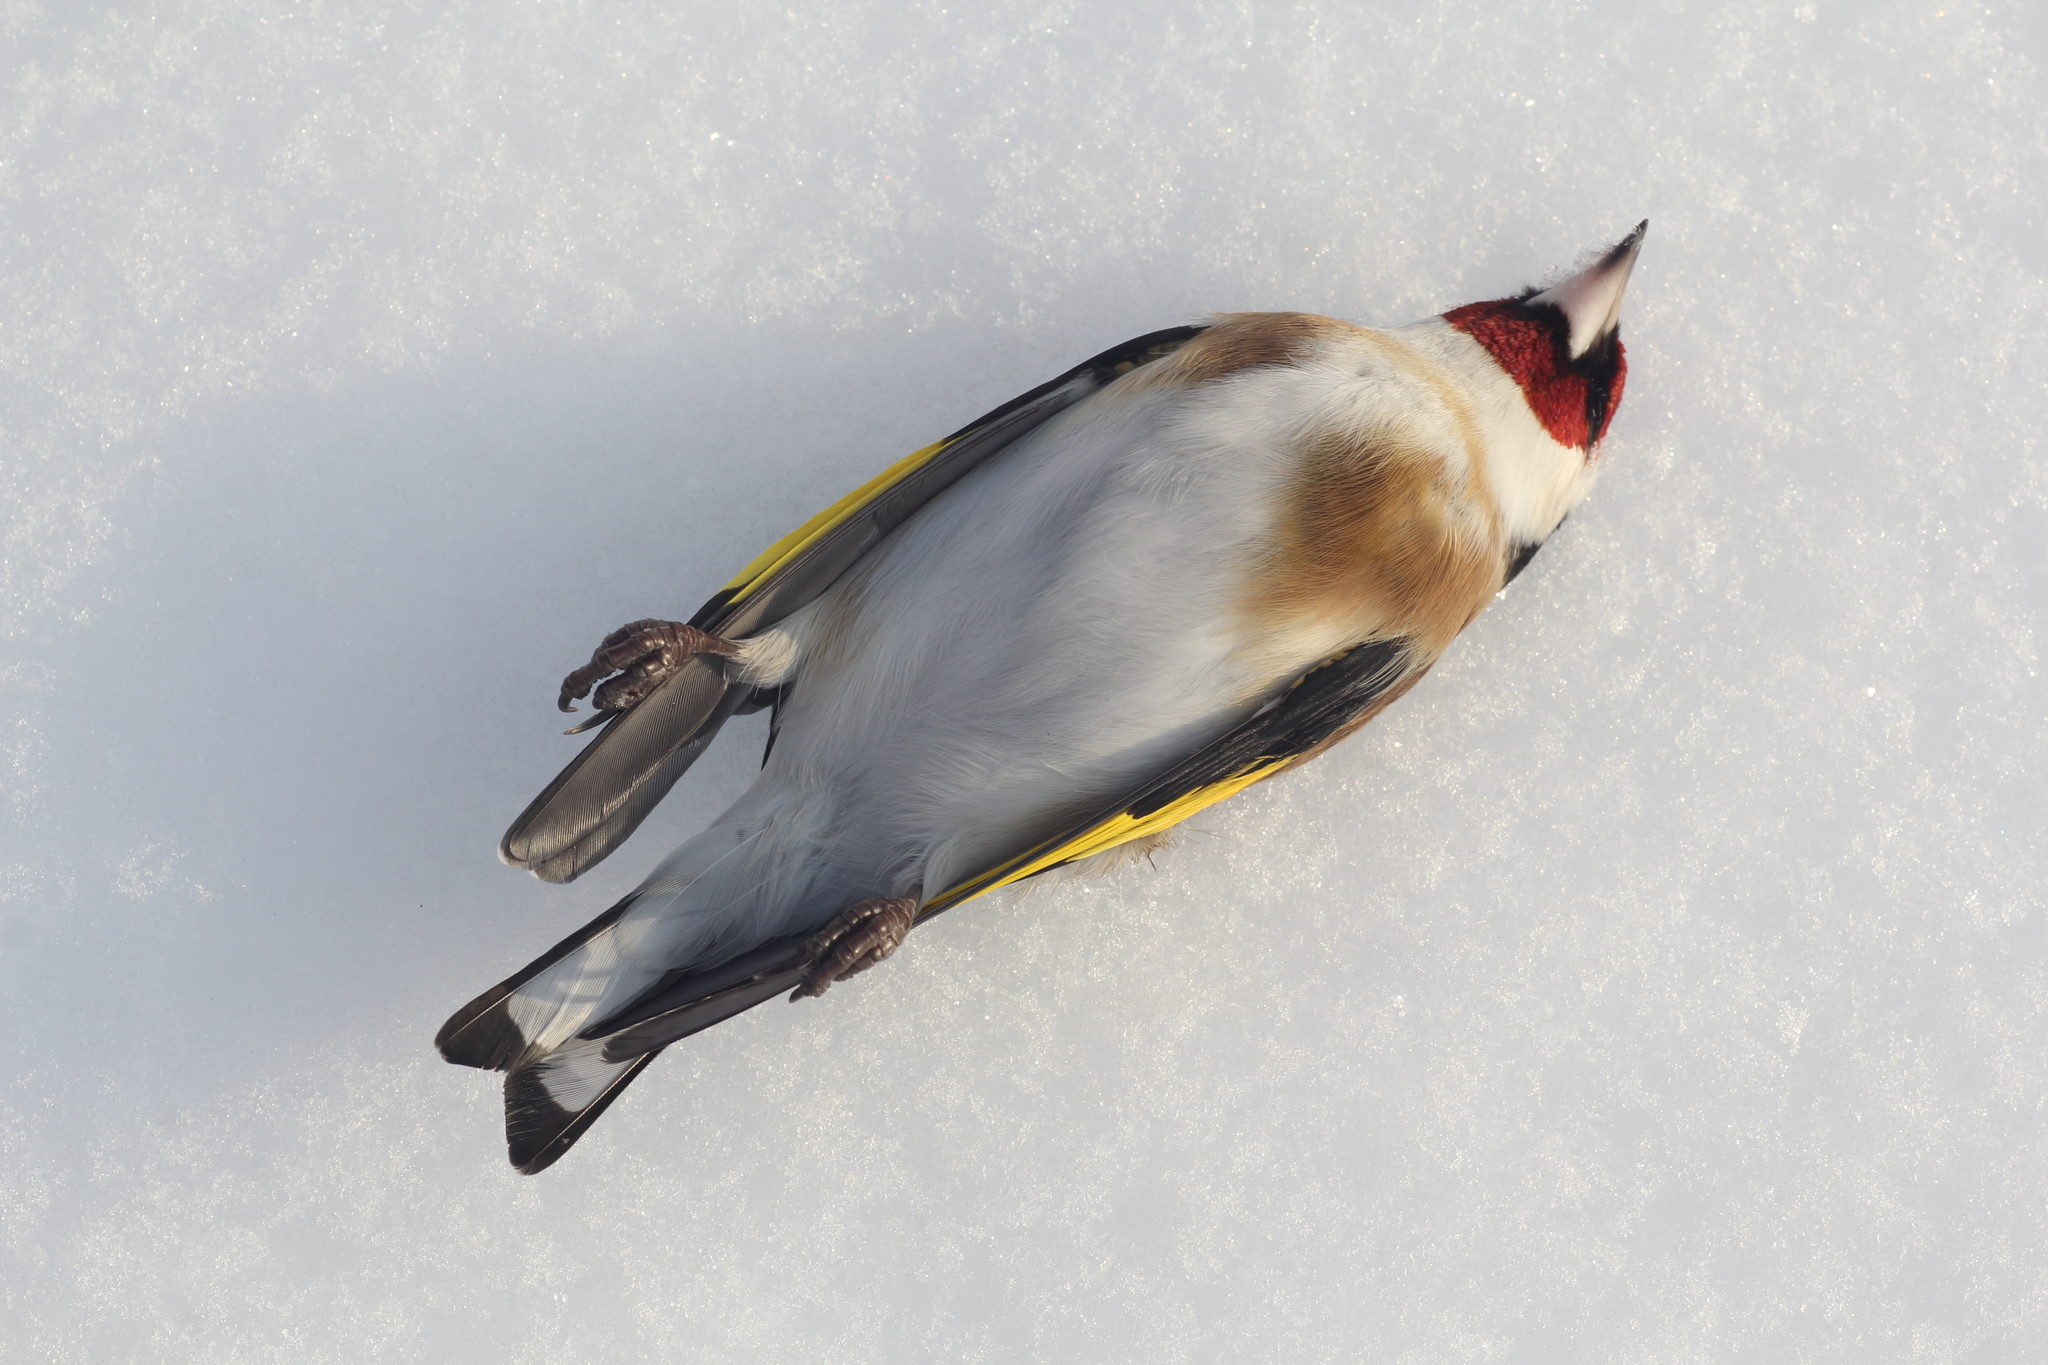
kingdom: Animalia
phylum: Chordata
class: Aves
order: Passeriformes
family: Fringillidae
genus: Carduelis
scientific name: Carduelis carduelis
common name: European goldfinch
